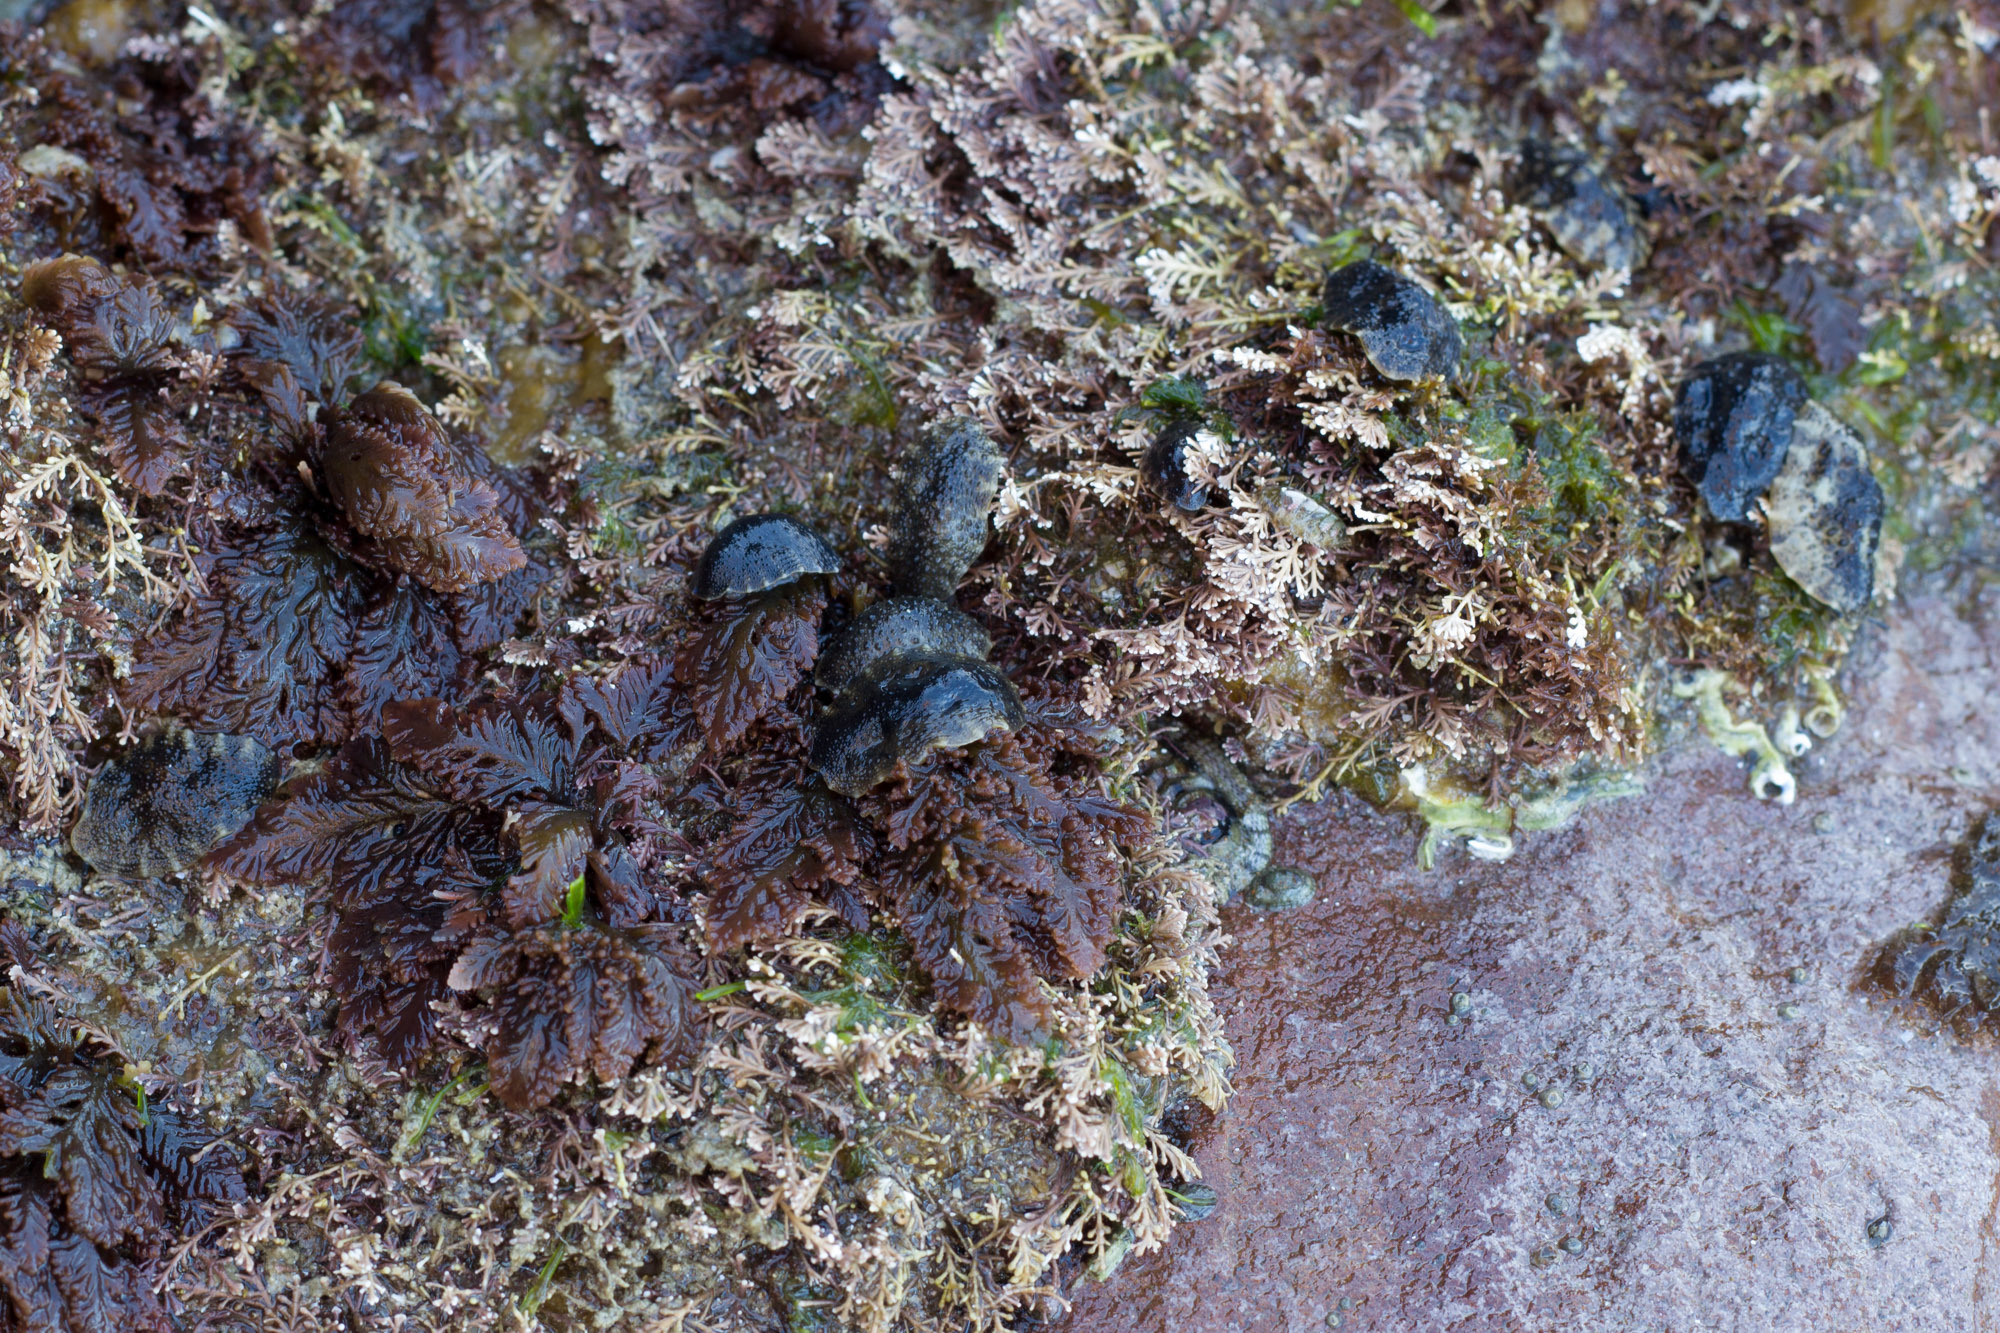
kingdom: Animalia
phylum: Mollusca
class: Gastropoda
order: Systellommatophora
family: Onchidiidae
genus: Onchidella
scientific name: Onchidella nigricans
